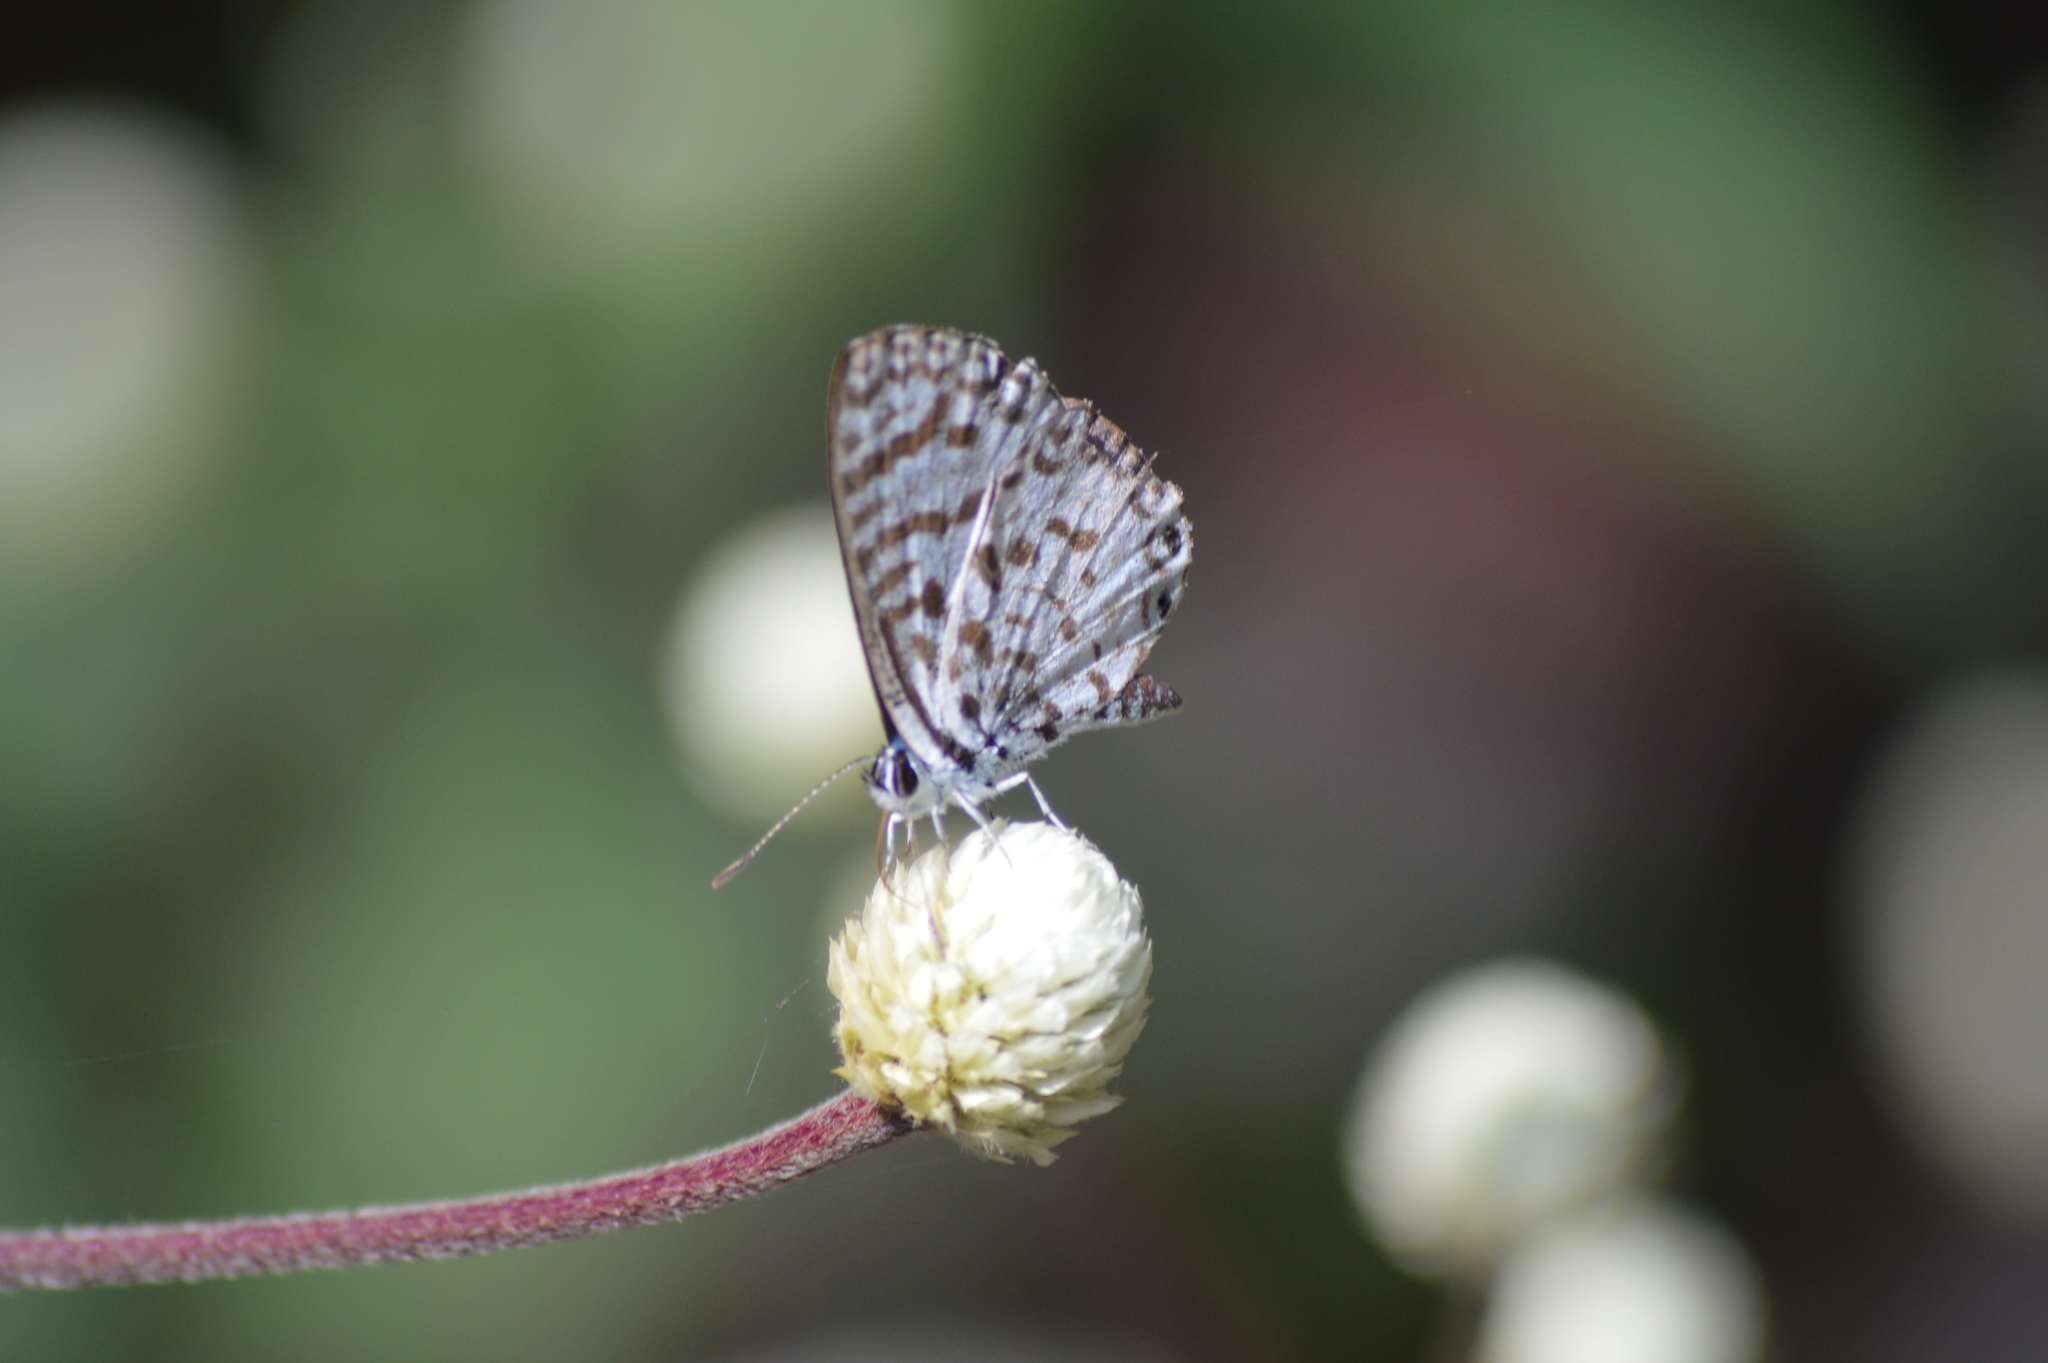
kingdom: Animalia
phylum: Arthropoda
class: Insecta
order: Lepidoptera
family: Lycaenidae
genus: Leptotes
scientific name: Leptotes cassius
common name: Cassius blue
